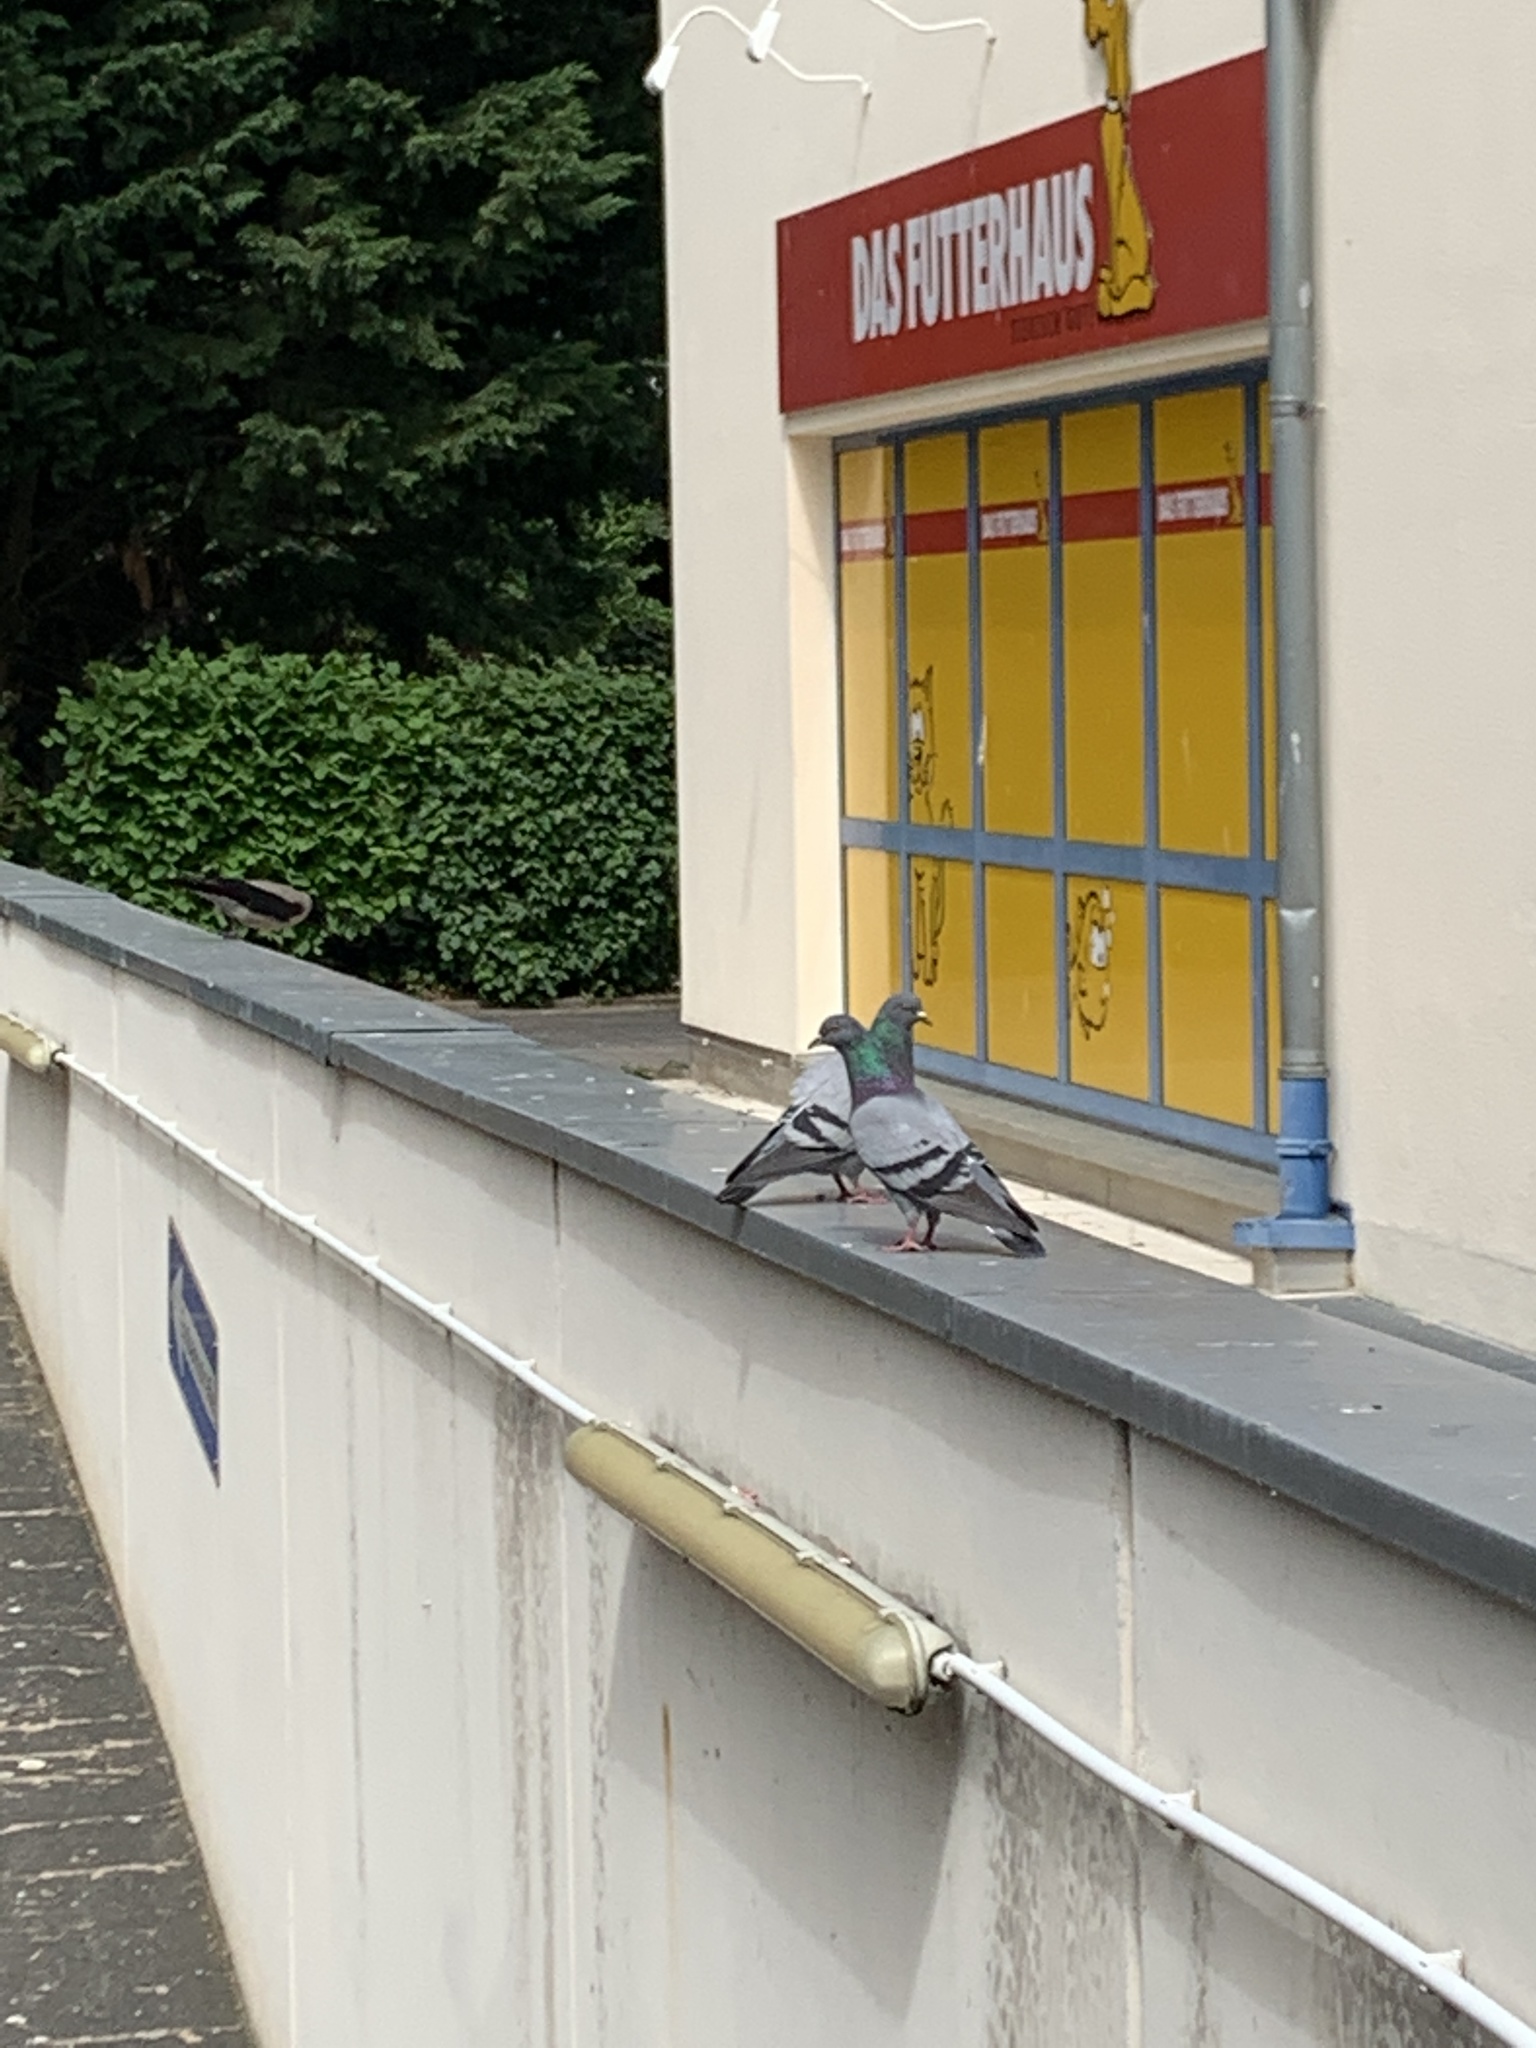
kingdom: Animalia
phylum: Chordata
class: Aves
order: Columbiformes
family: Columbidae
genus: Columba
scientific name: Columba livia
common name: Rock pigeon
